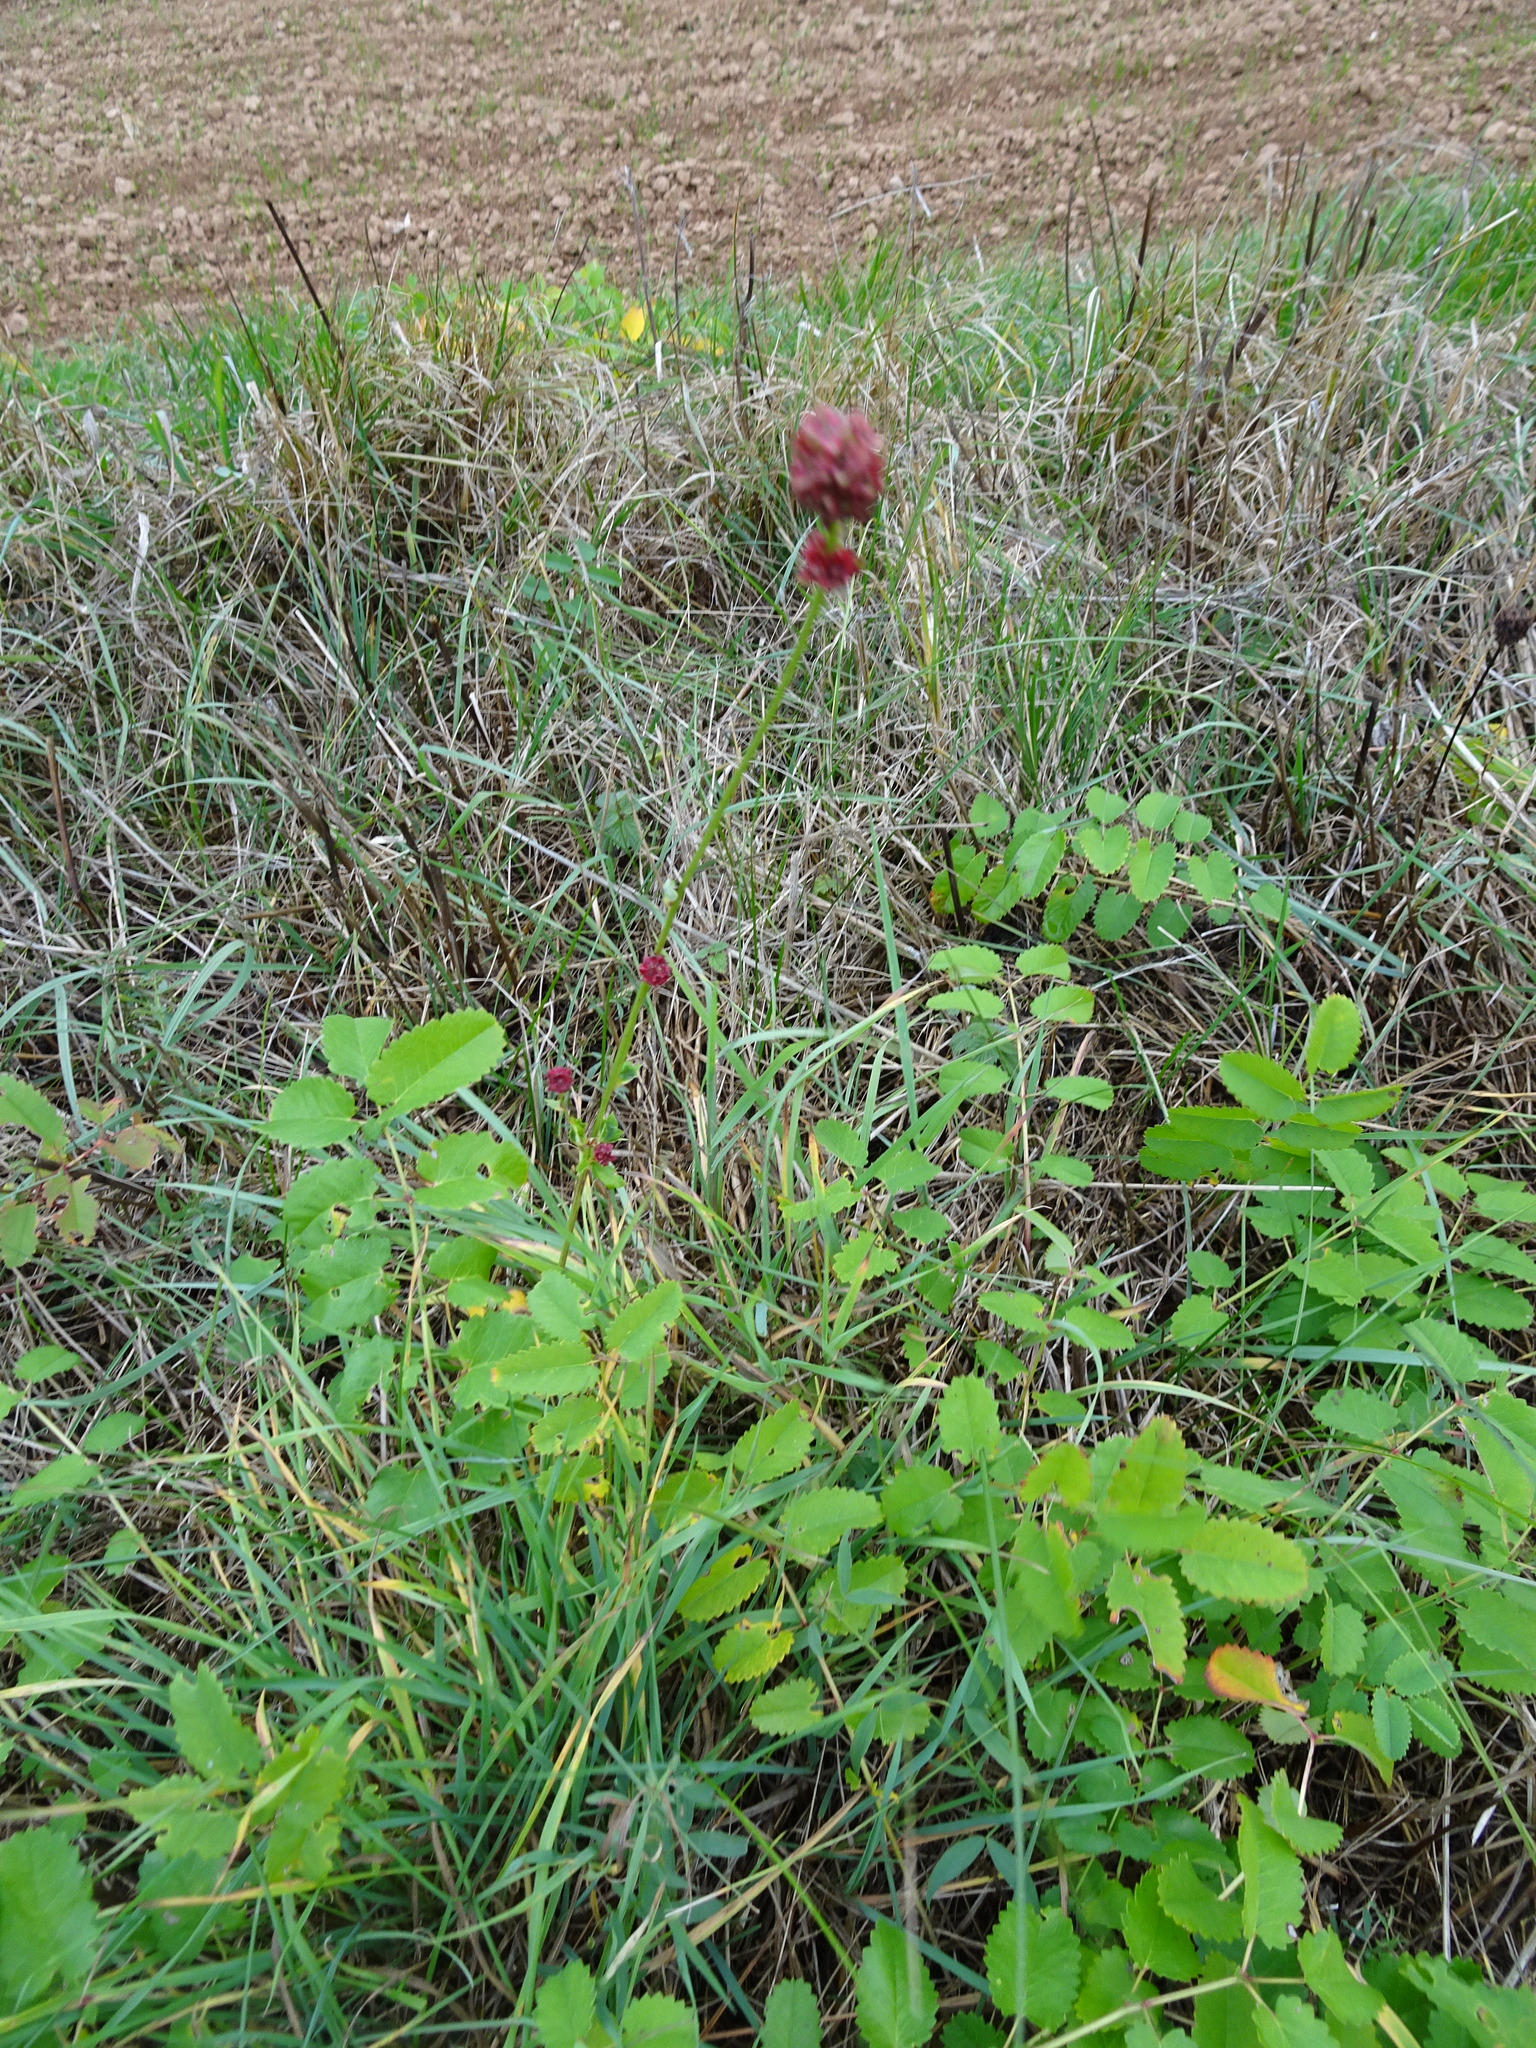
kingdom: Plantae
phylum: Tracheophyta
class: Magnoliopsida
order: Rosales
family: Rosaceae
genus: Sanguisorba
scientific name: Sanguisorba officinalis
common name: Great burnet
